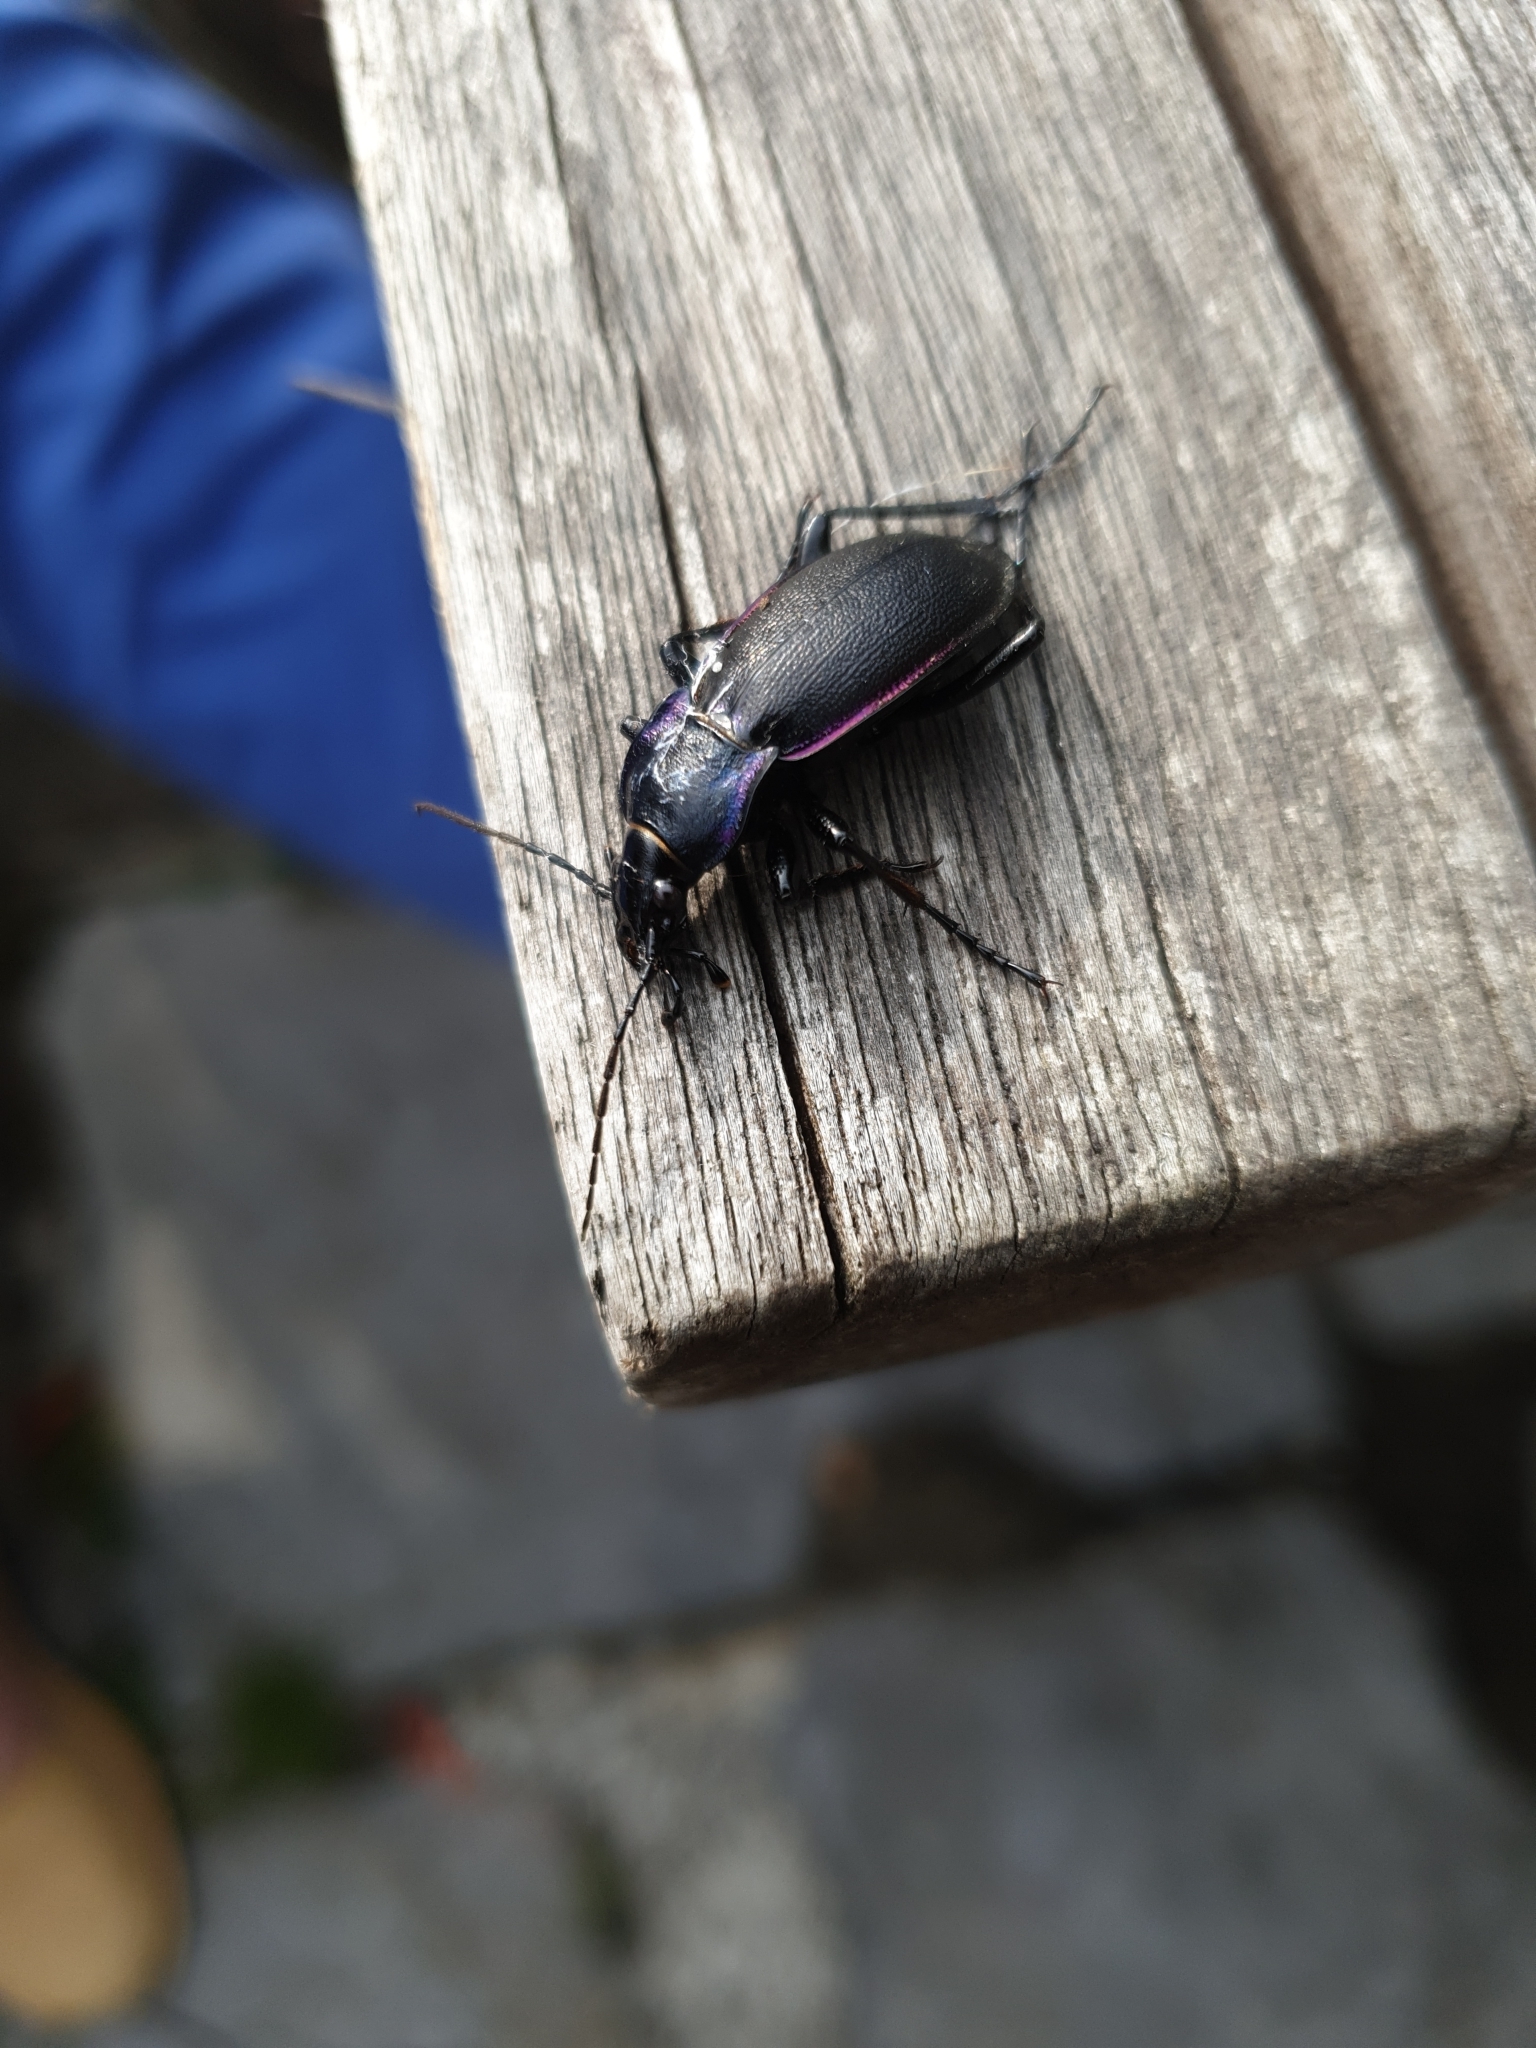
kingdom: Animalia
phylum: Arthropoda
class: Insecta
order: Coleoptera
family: Carabidae
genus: Carabus
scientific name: Carabus violaceus
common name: Violet ground beetle
